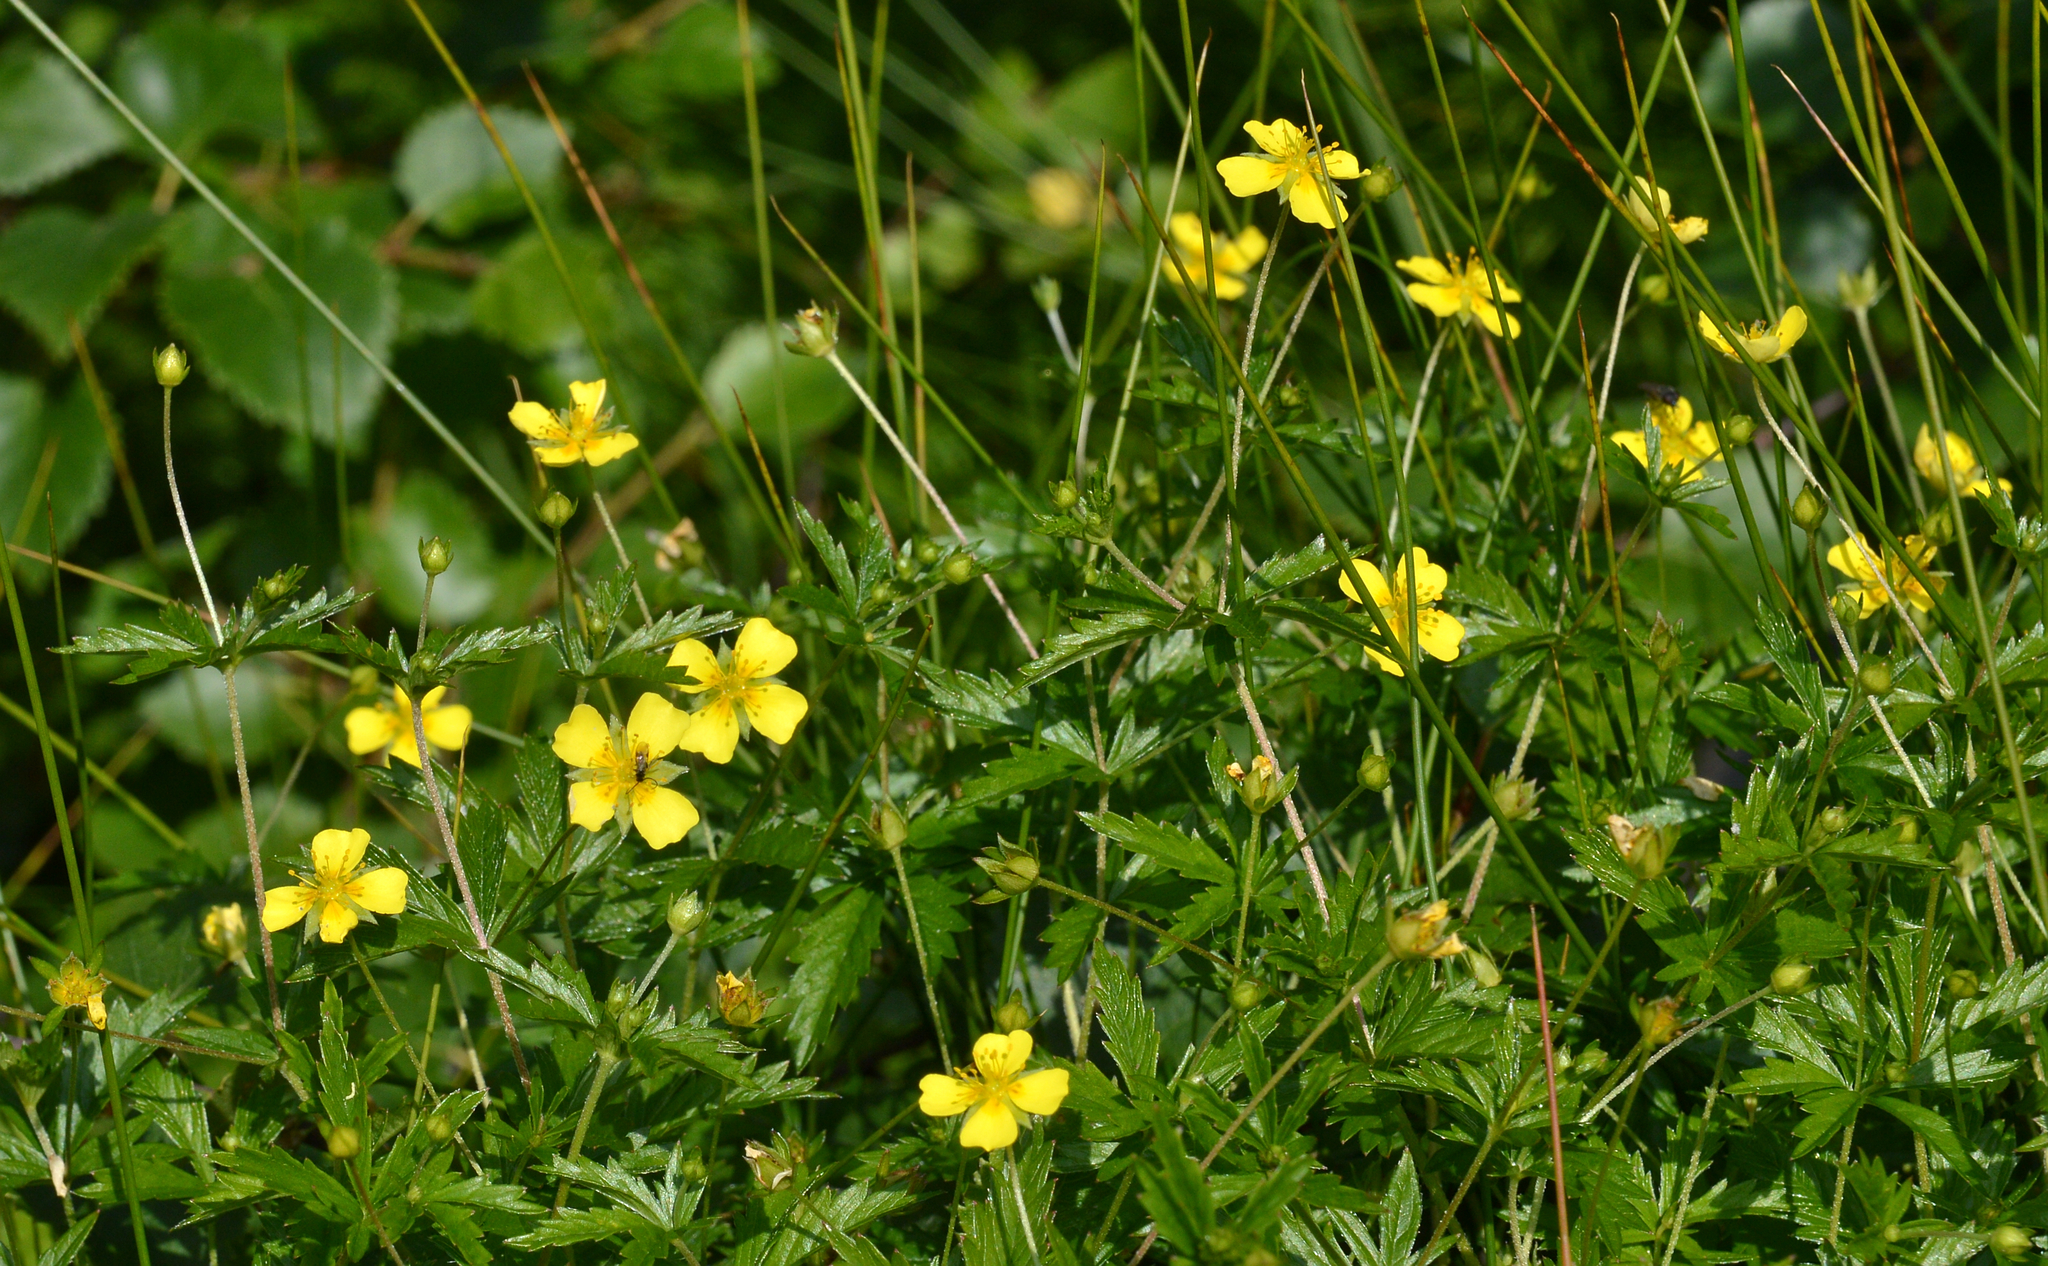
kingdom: Plantae
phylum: Tracheophyta
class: Magnoliopsida
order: Rosales
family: Rosaceae
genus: Potentilla
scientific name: Potentilla erecta
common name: Tormentil
